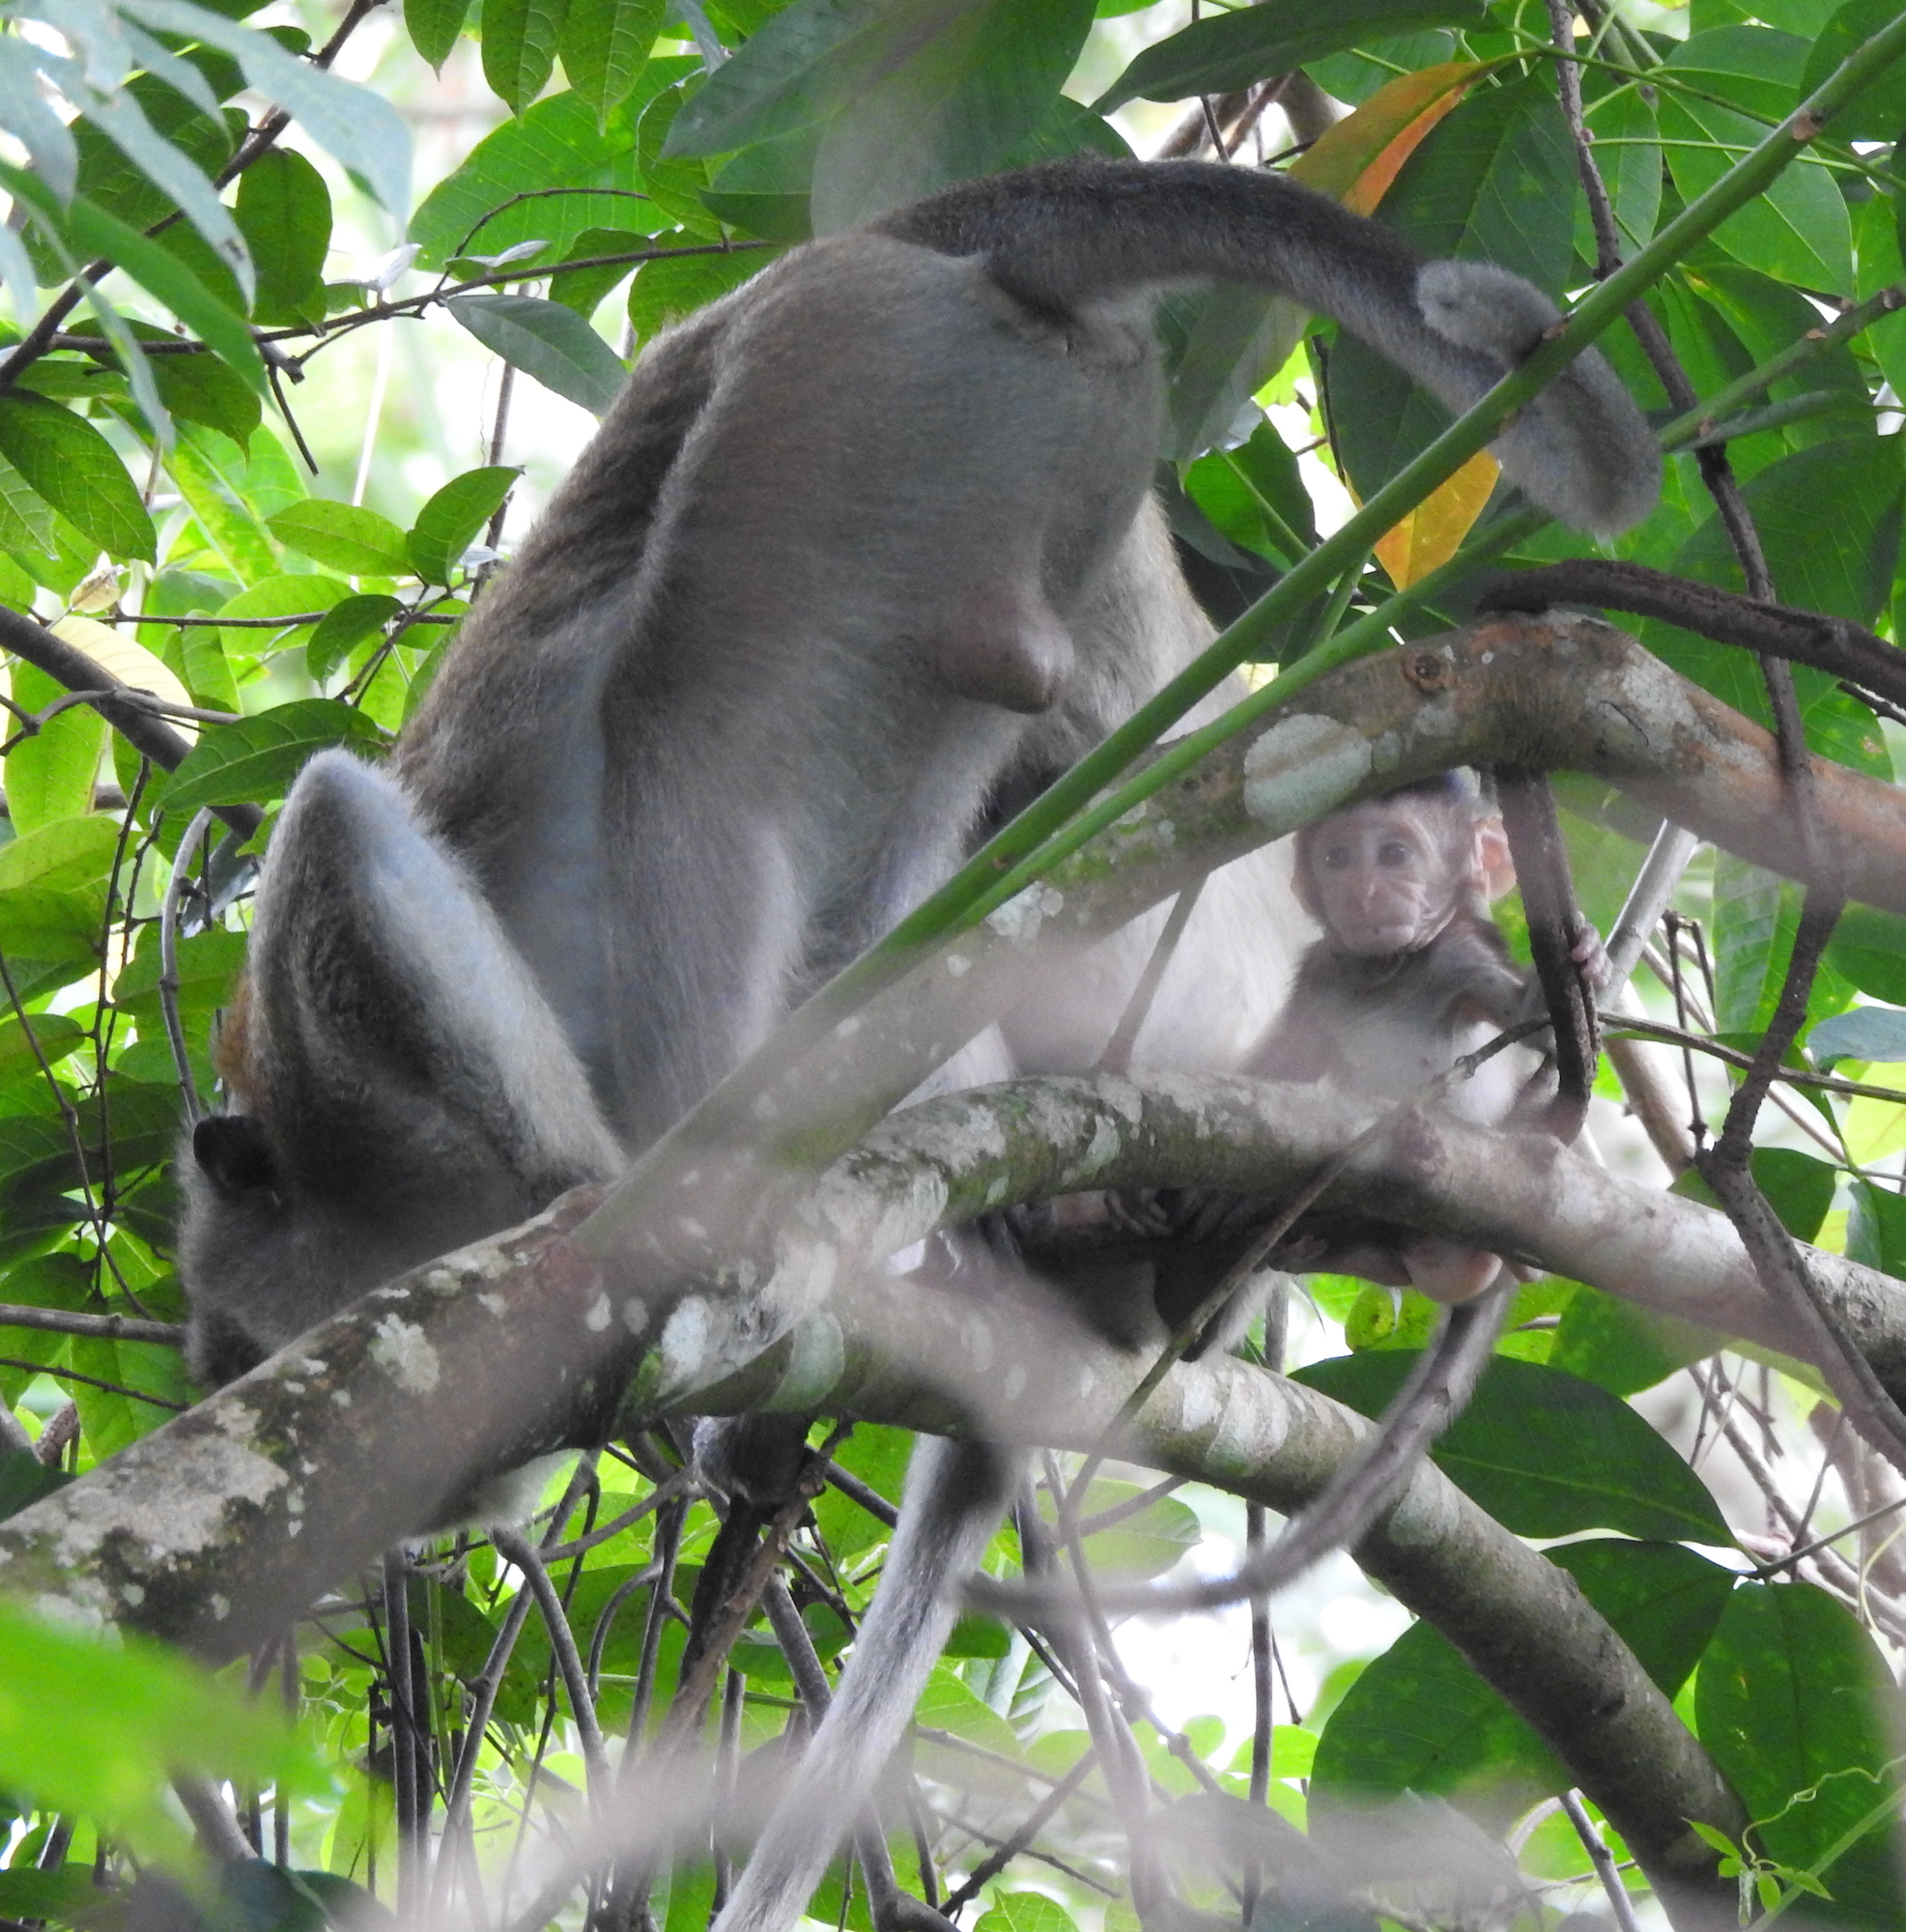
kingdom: Animalia
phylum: Chordata
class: Mammalia
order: Primates
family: Cercopithecidae
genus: Macaca
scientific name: Macaca fascicularis
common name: Crab-eating macaque
